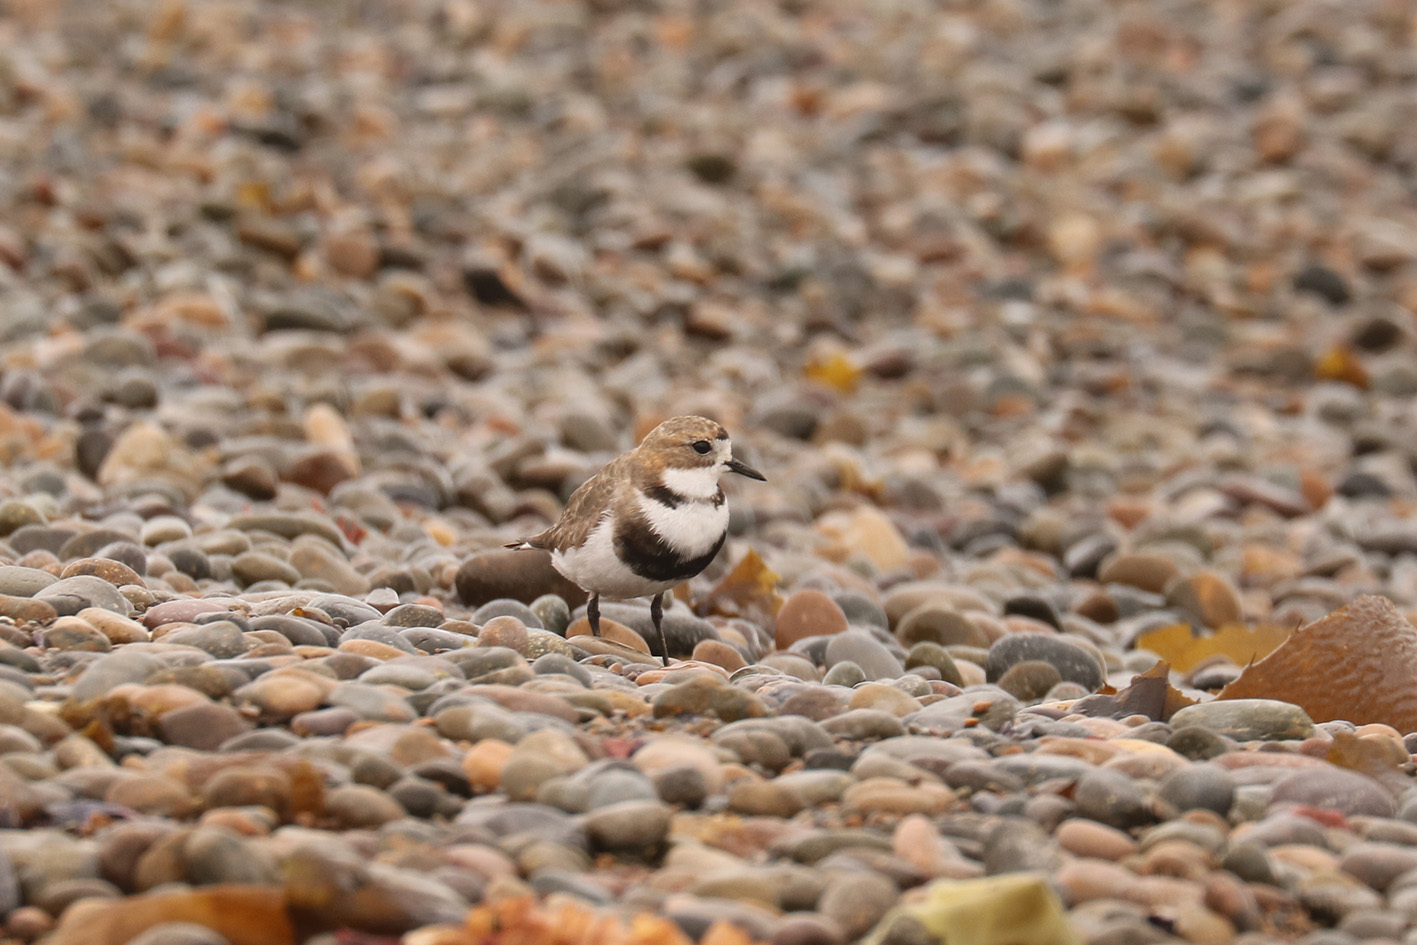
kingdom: Animalia
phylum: Chordata
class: Aves
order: Charadriiformes
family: Charadriidae
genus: Anarhynchus
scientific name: Anarhynchus
